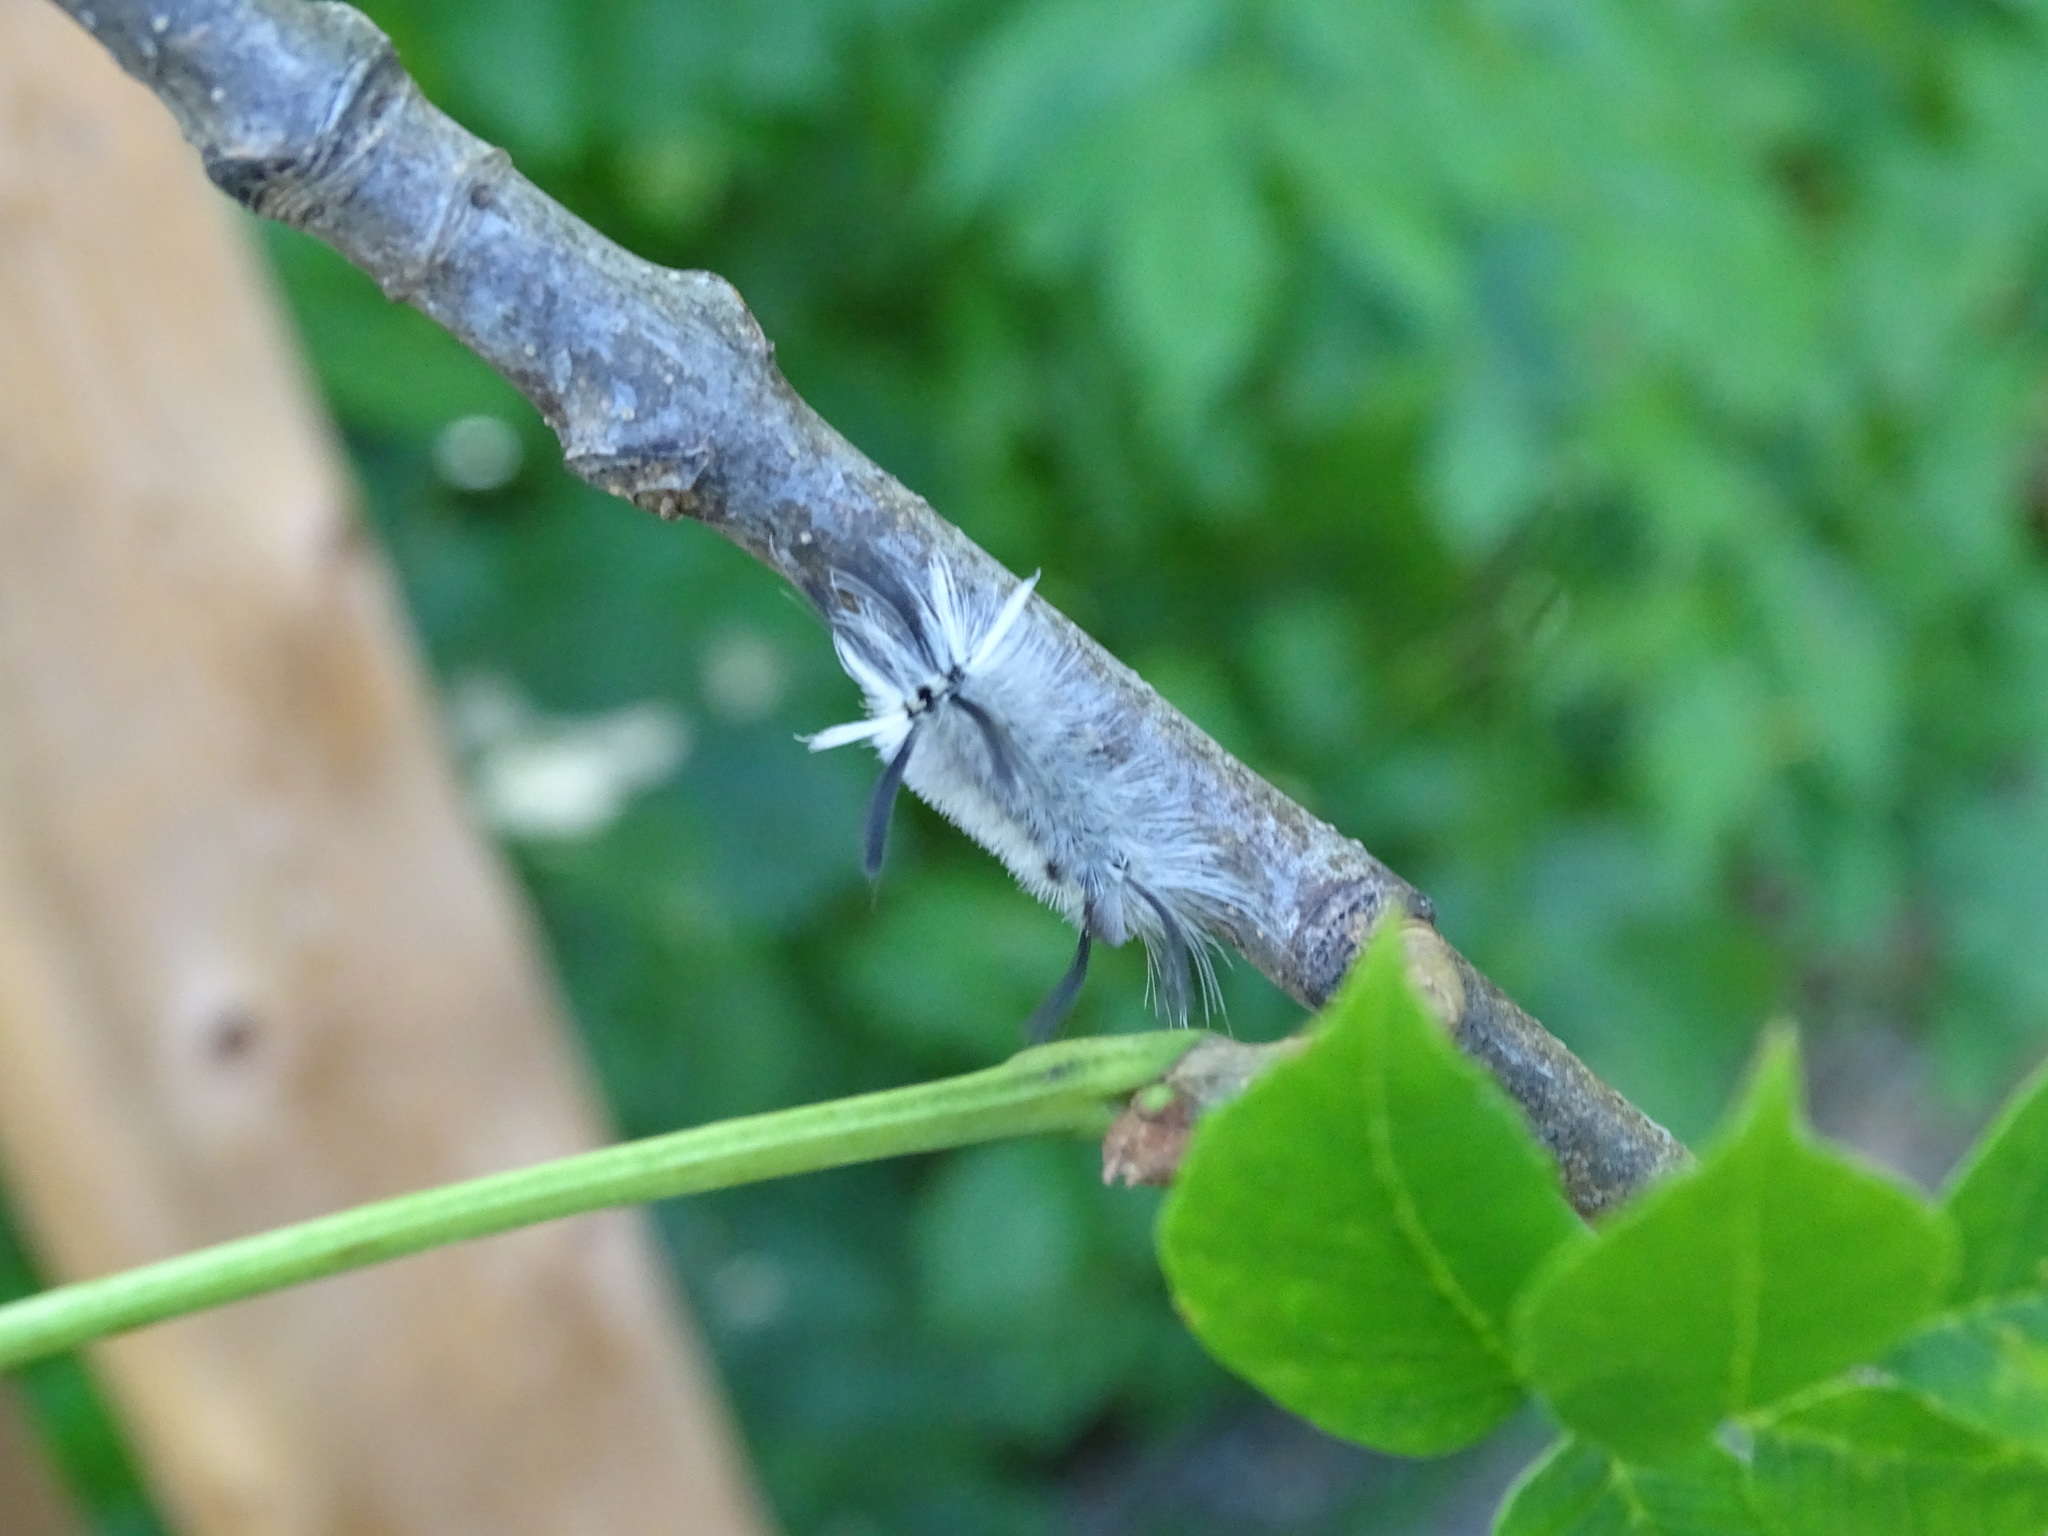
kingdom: Animalia
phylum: Arthropoda
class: Insecta
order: Lepidoptera
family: Erebidae
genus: Halysidota
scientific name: Halysidota tessellaris
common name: Banded tussock moth
